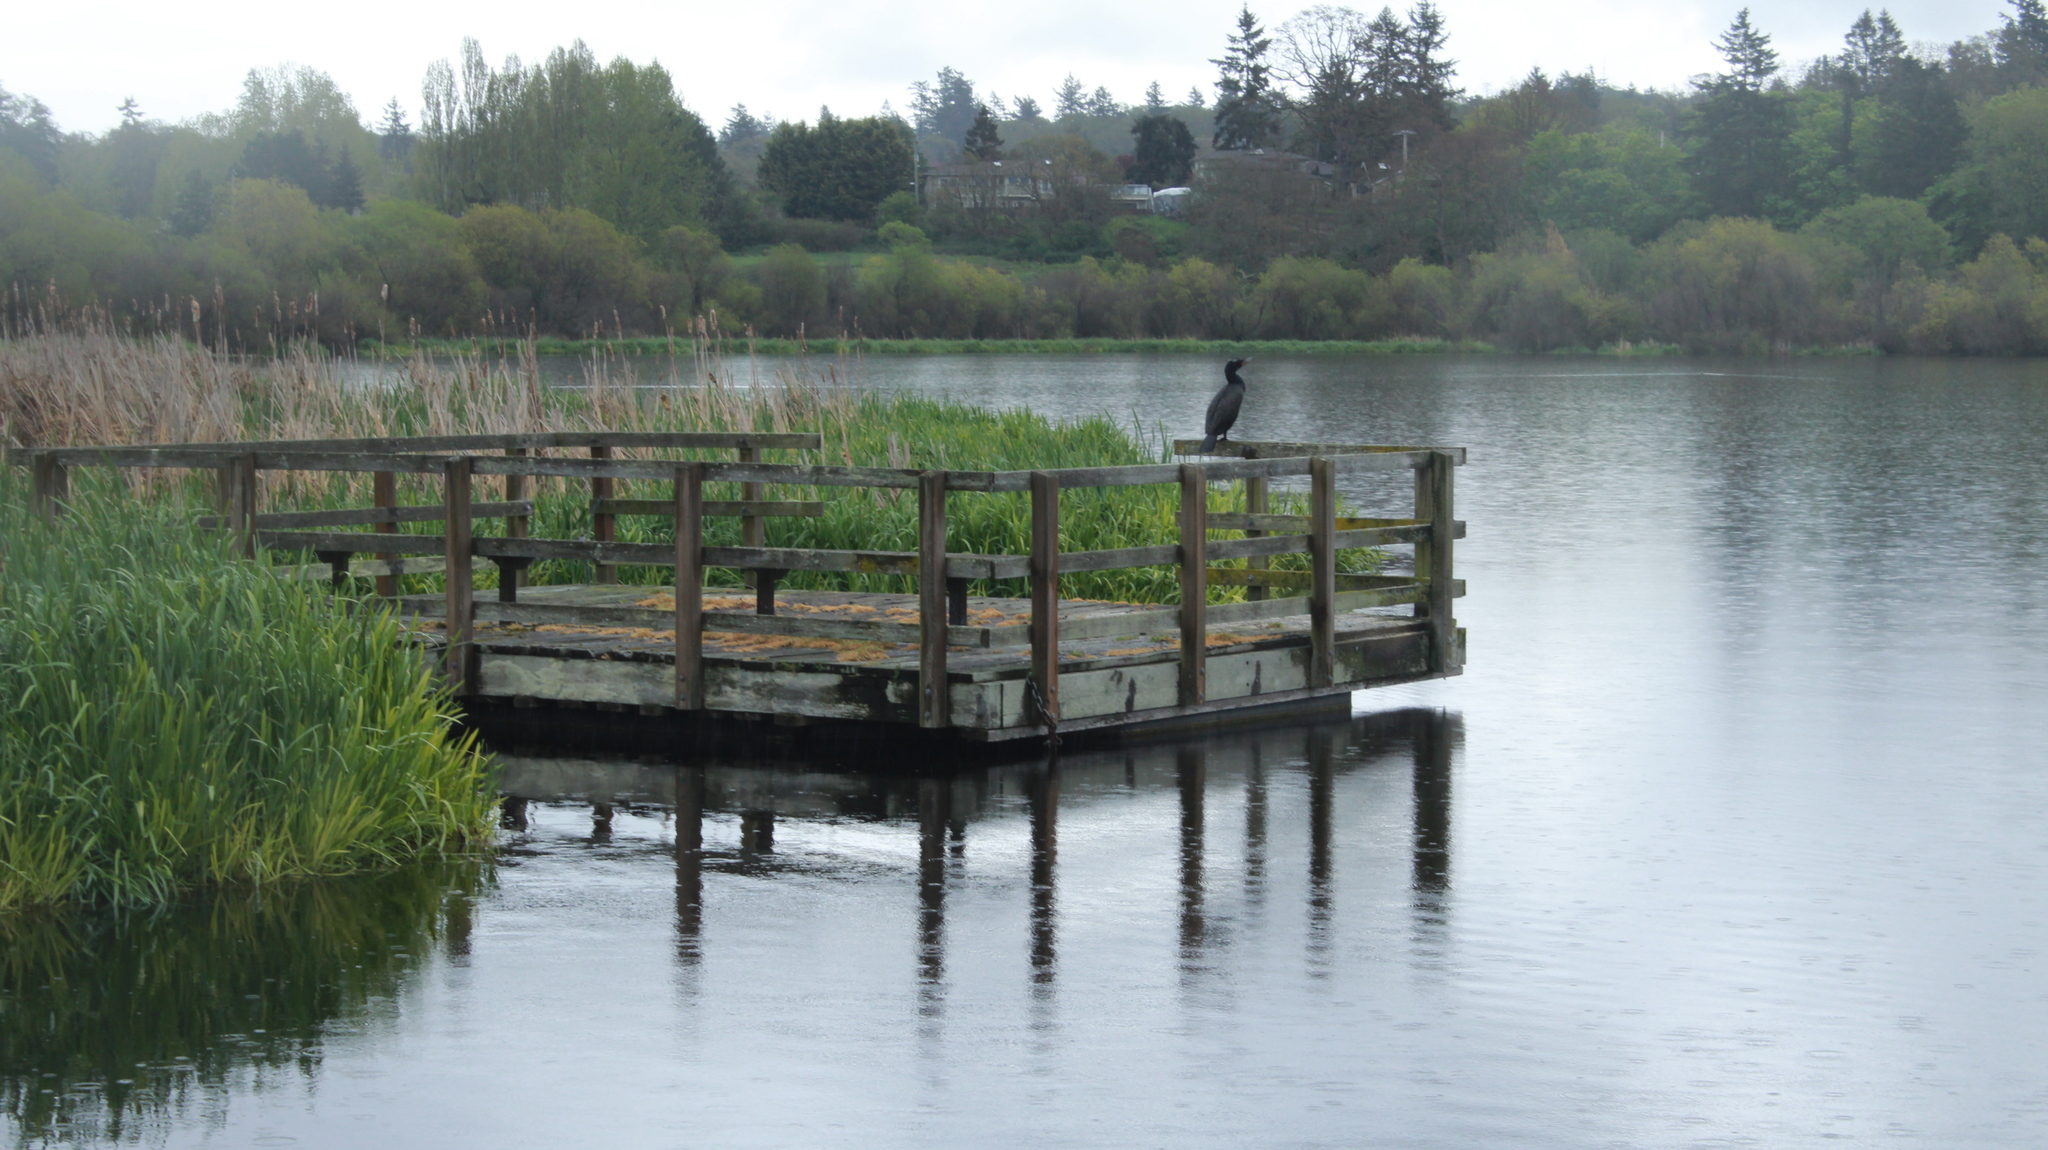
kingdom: Animalia
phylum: Chordata
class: Aves
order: Suliformes
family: Phalacrocoracidae
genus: Phalacrocorax
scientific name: Phalacrocorax auritus
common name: Double-crested cormorant
